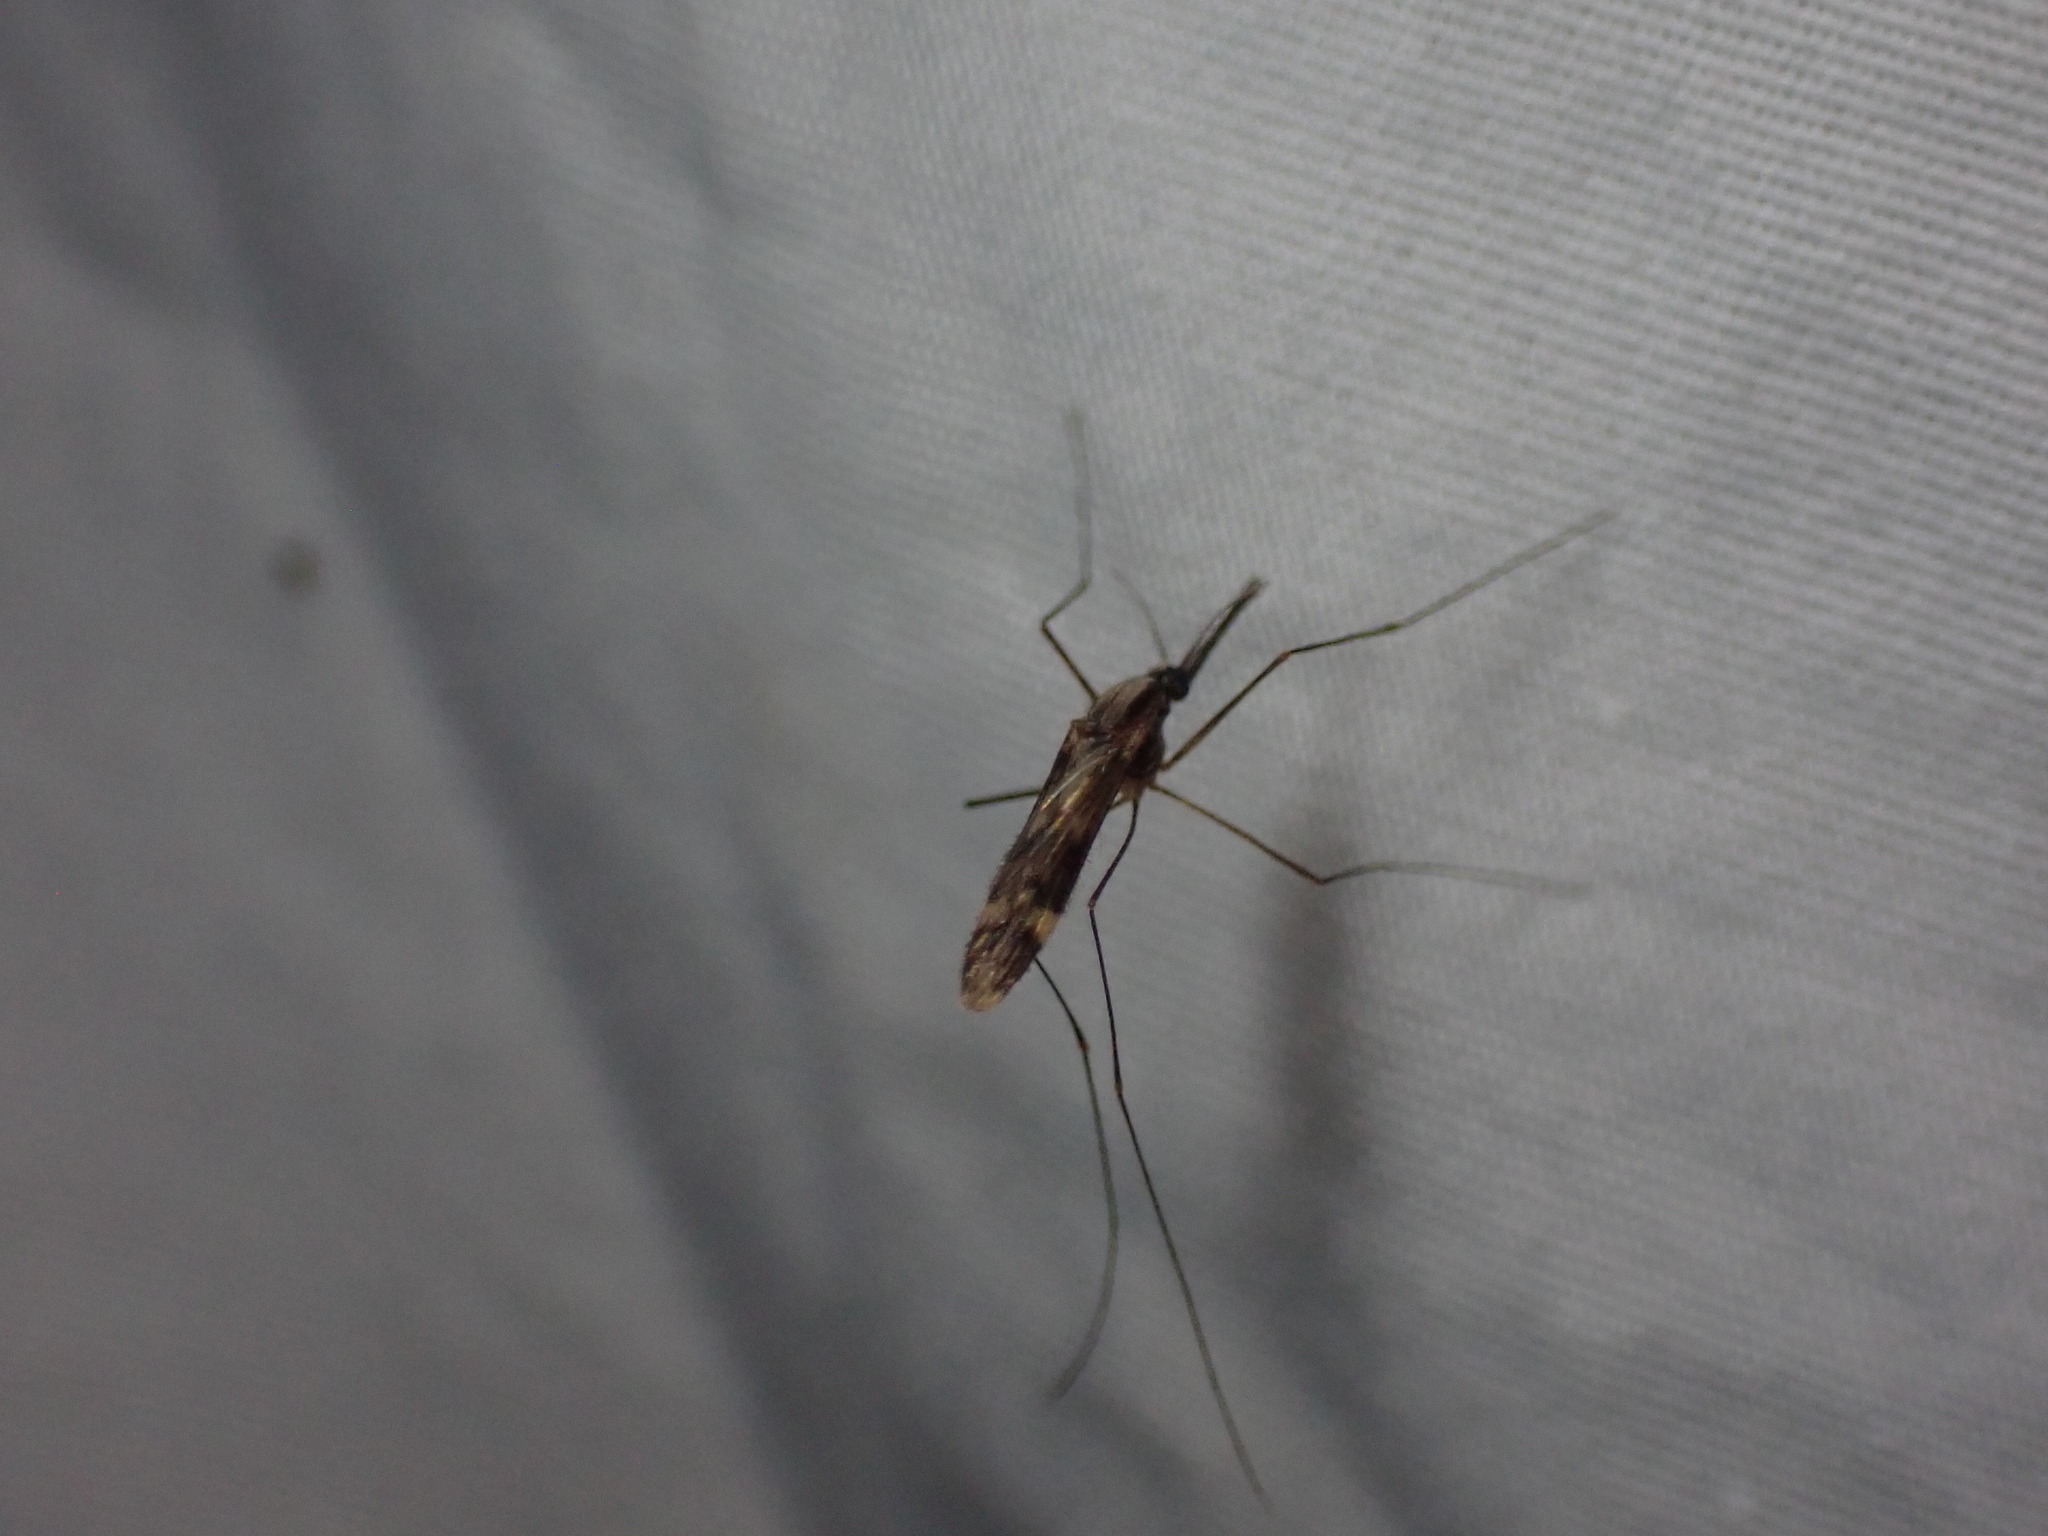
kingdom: Animalia
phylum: Arthropoda
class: Insecta
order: Diptera
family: Culicidae
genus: Anopheles
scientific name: Anopheles punctipennis
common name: Woodland malaria mosquito
